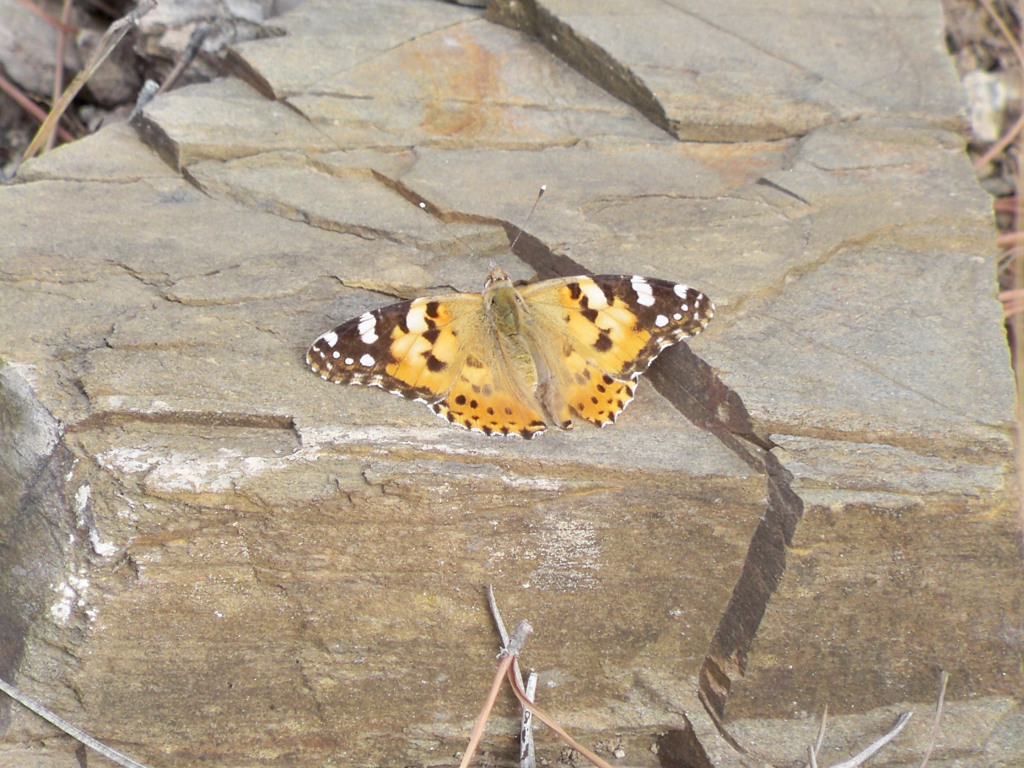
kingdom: Animalia
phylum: Arthropoda
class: Insecta
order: Lepidoptera
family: Nymphalidae
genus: Vanessa
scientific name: Vanessa cardui
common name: Painted lady
